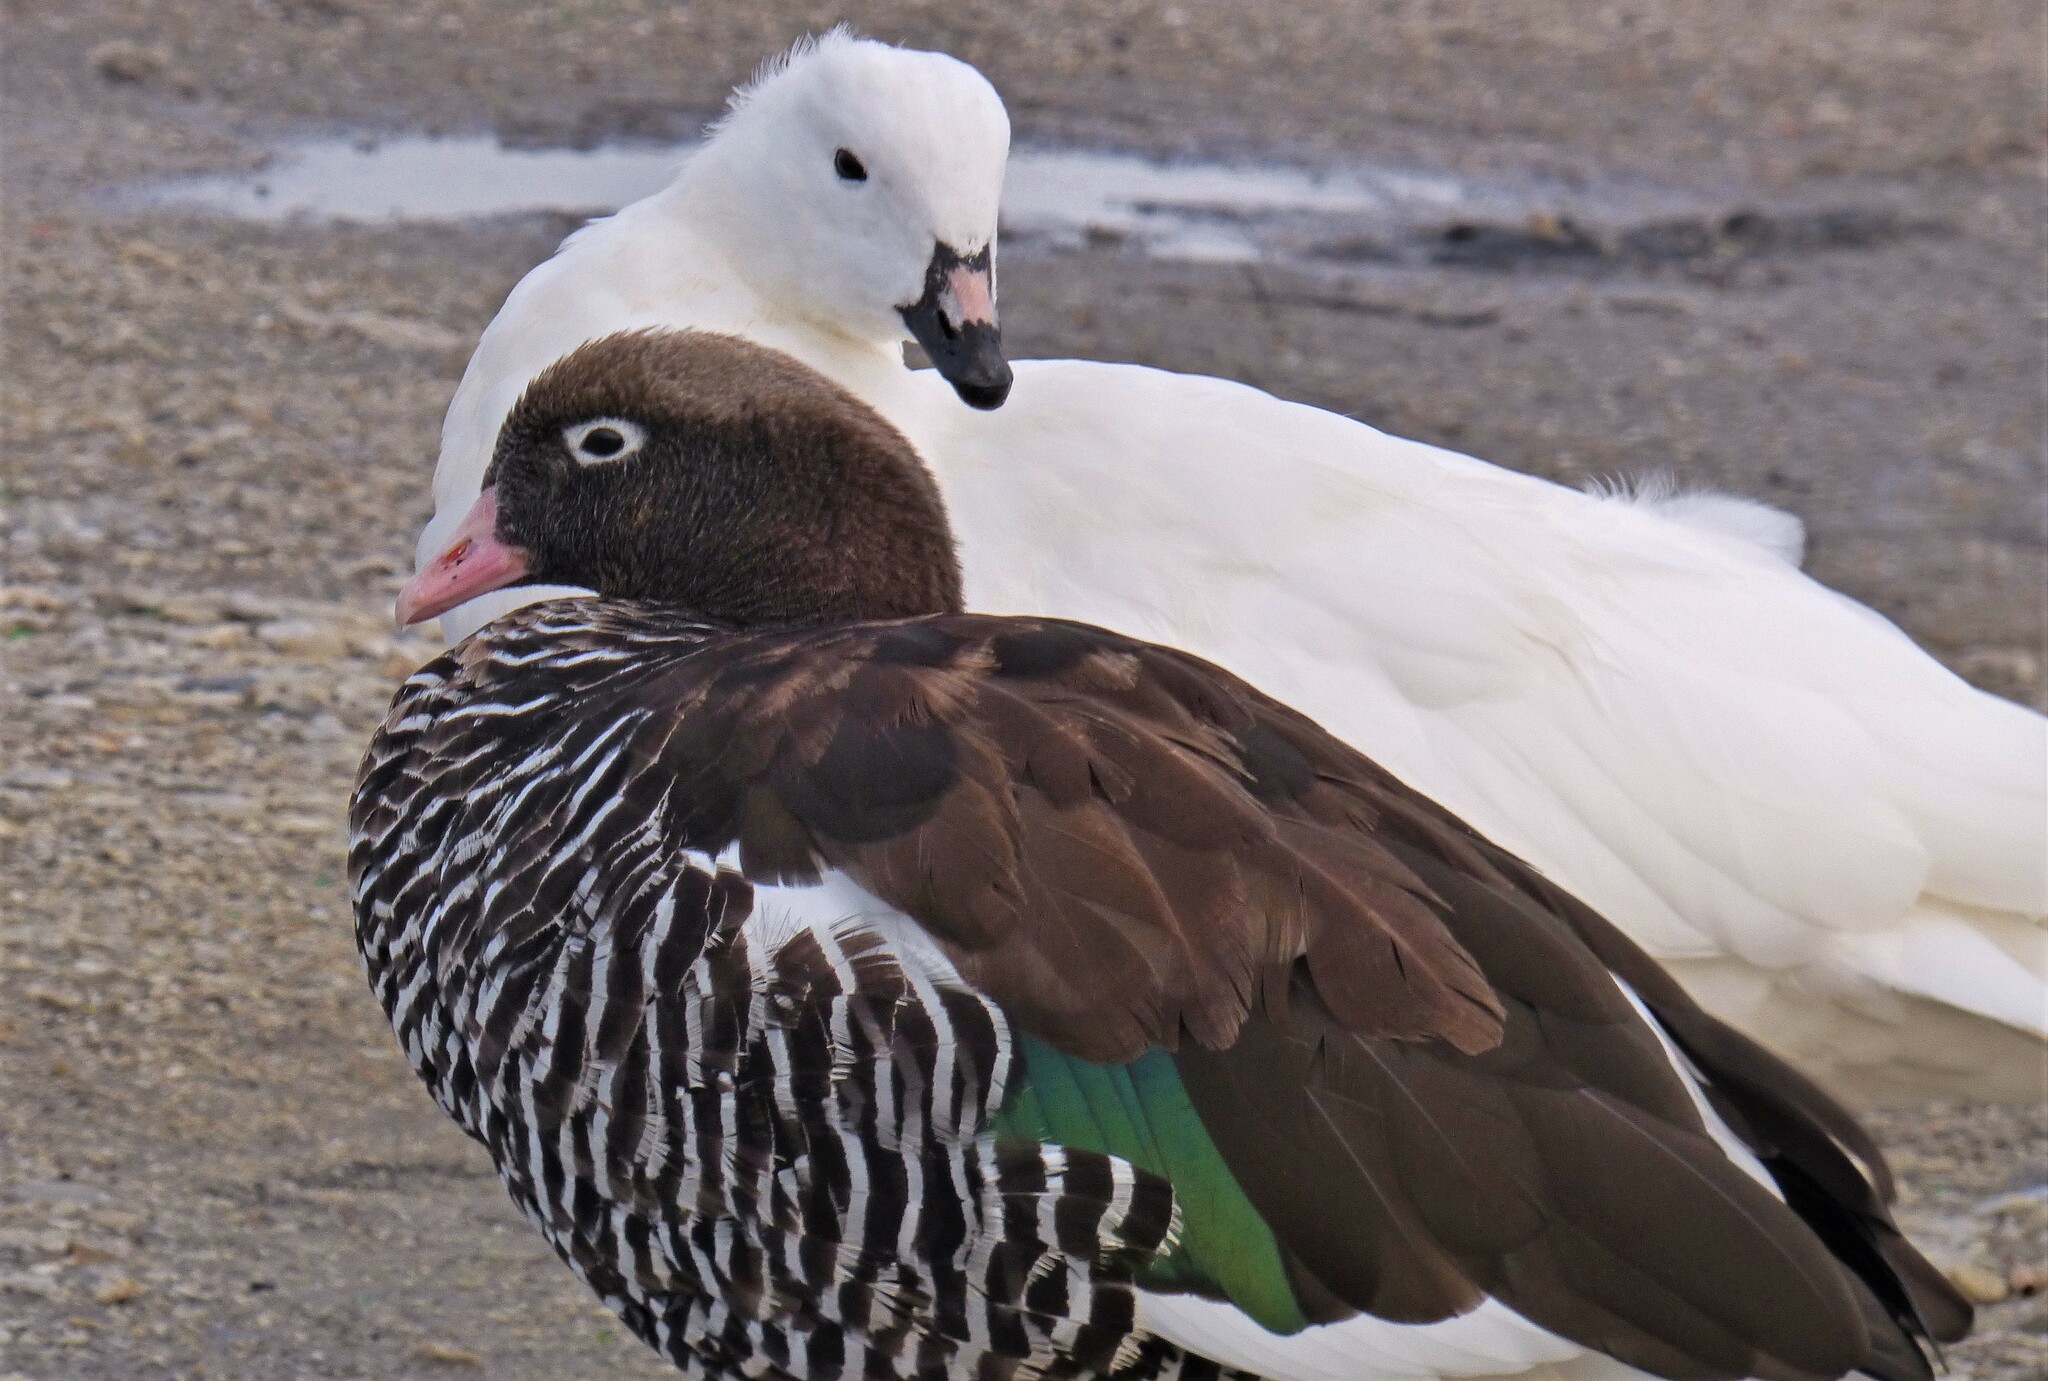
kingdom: Animalia
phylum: Chordata
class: Aves
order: Anseriformes
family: Anatidae
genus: Chloephaga
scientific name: Chloephaga hybrida
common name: Kelp goose
